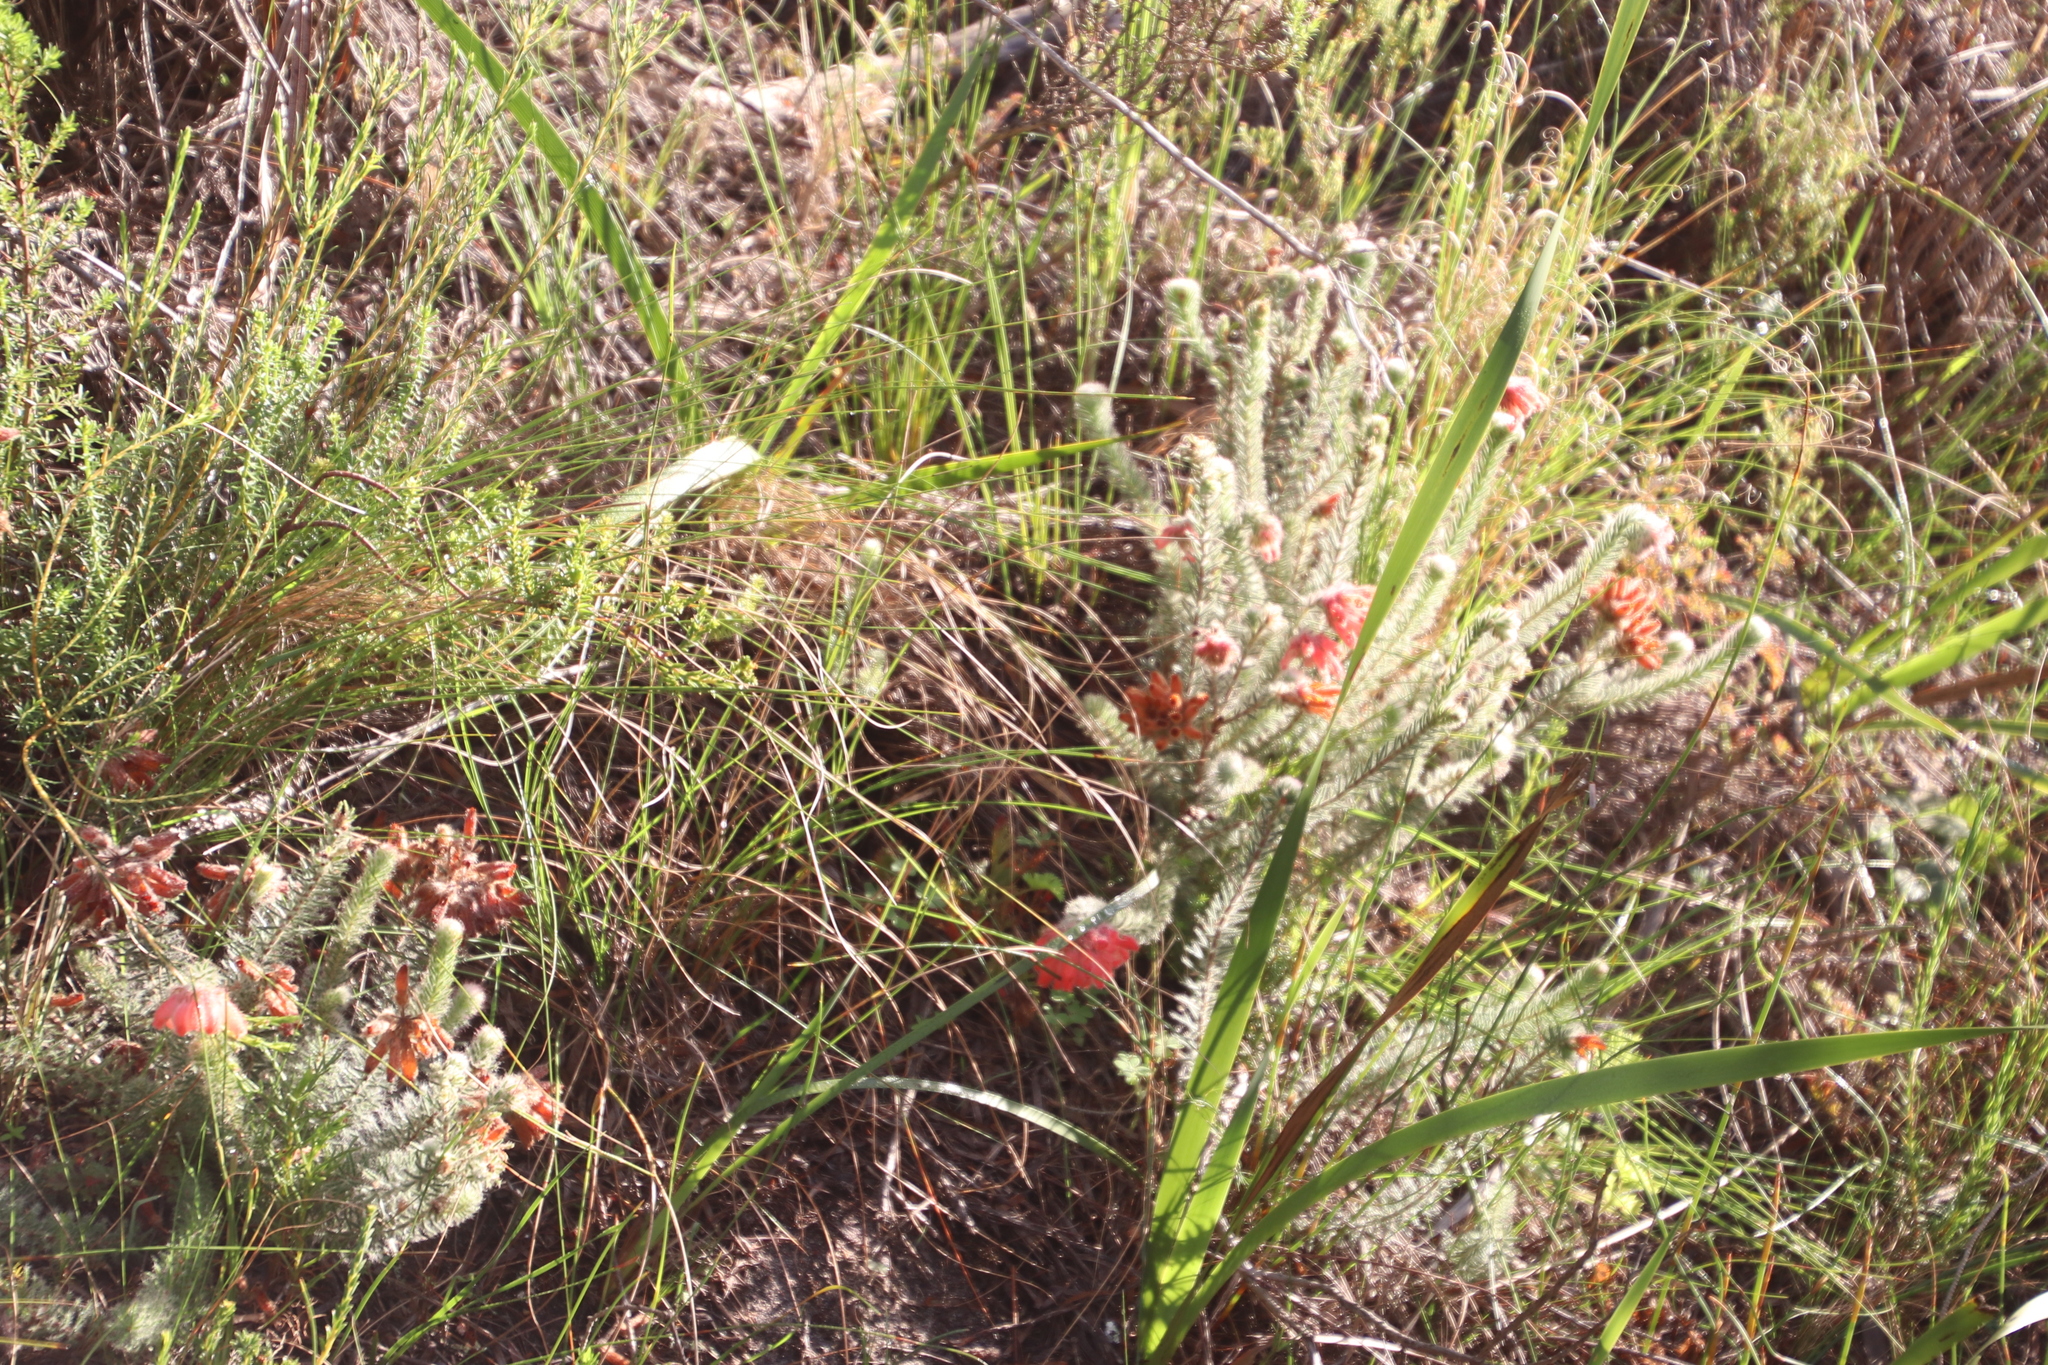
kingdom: Plantae
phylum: Tracheophyta
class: Magnoliopsida
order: Ericales
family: Ericaceae
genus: Erica
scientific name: Erica cerinthoides
